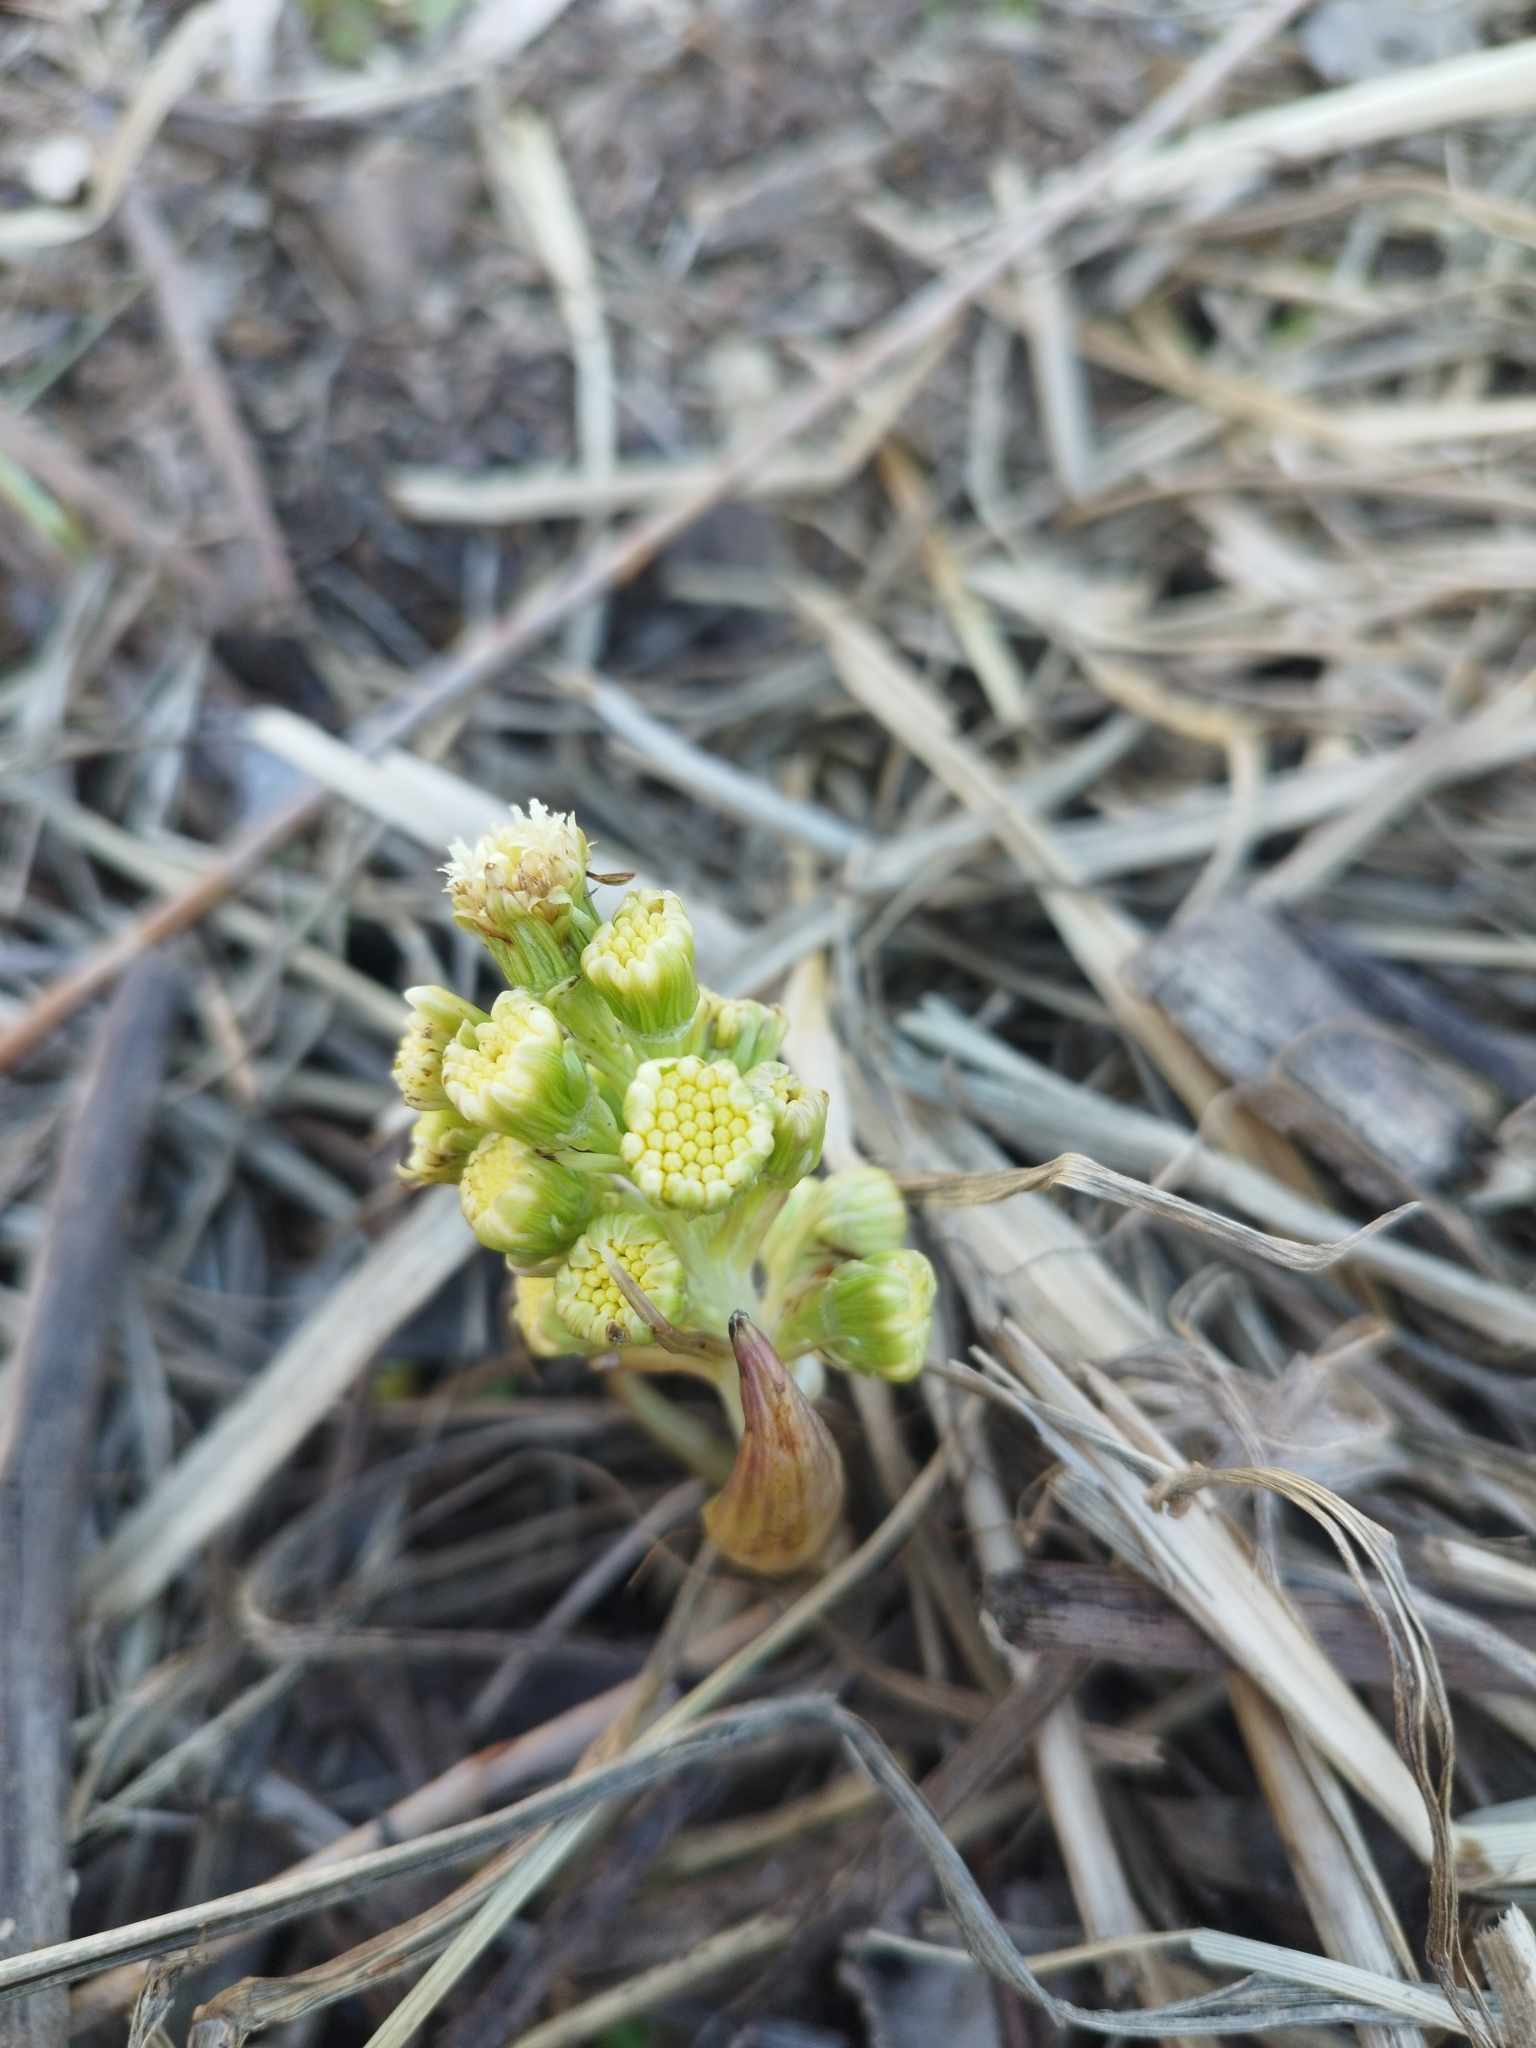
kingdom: Plantae
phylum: Tracheophyta
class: Magnoliopsida
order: Asterales
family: Asteraceae
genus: Petasites
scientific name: Petasites spurius
